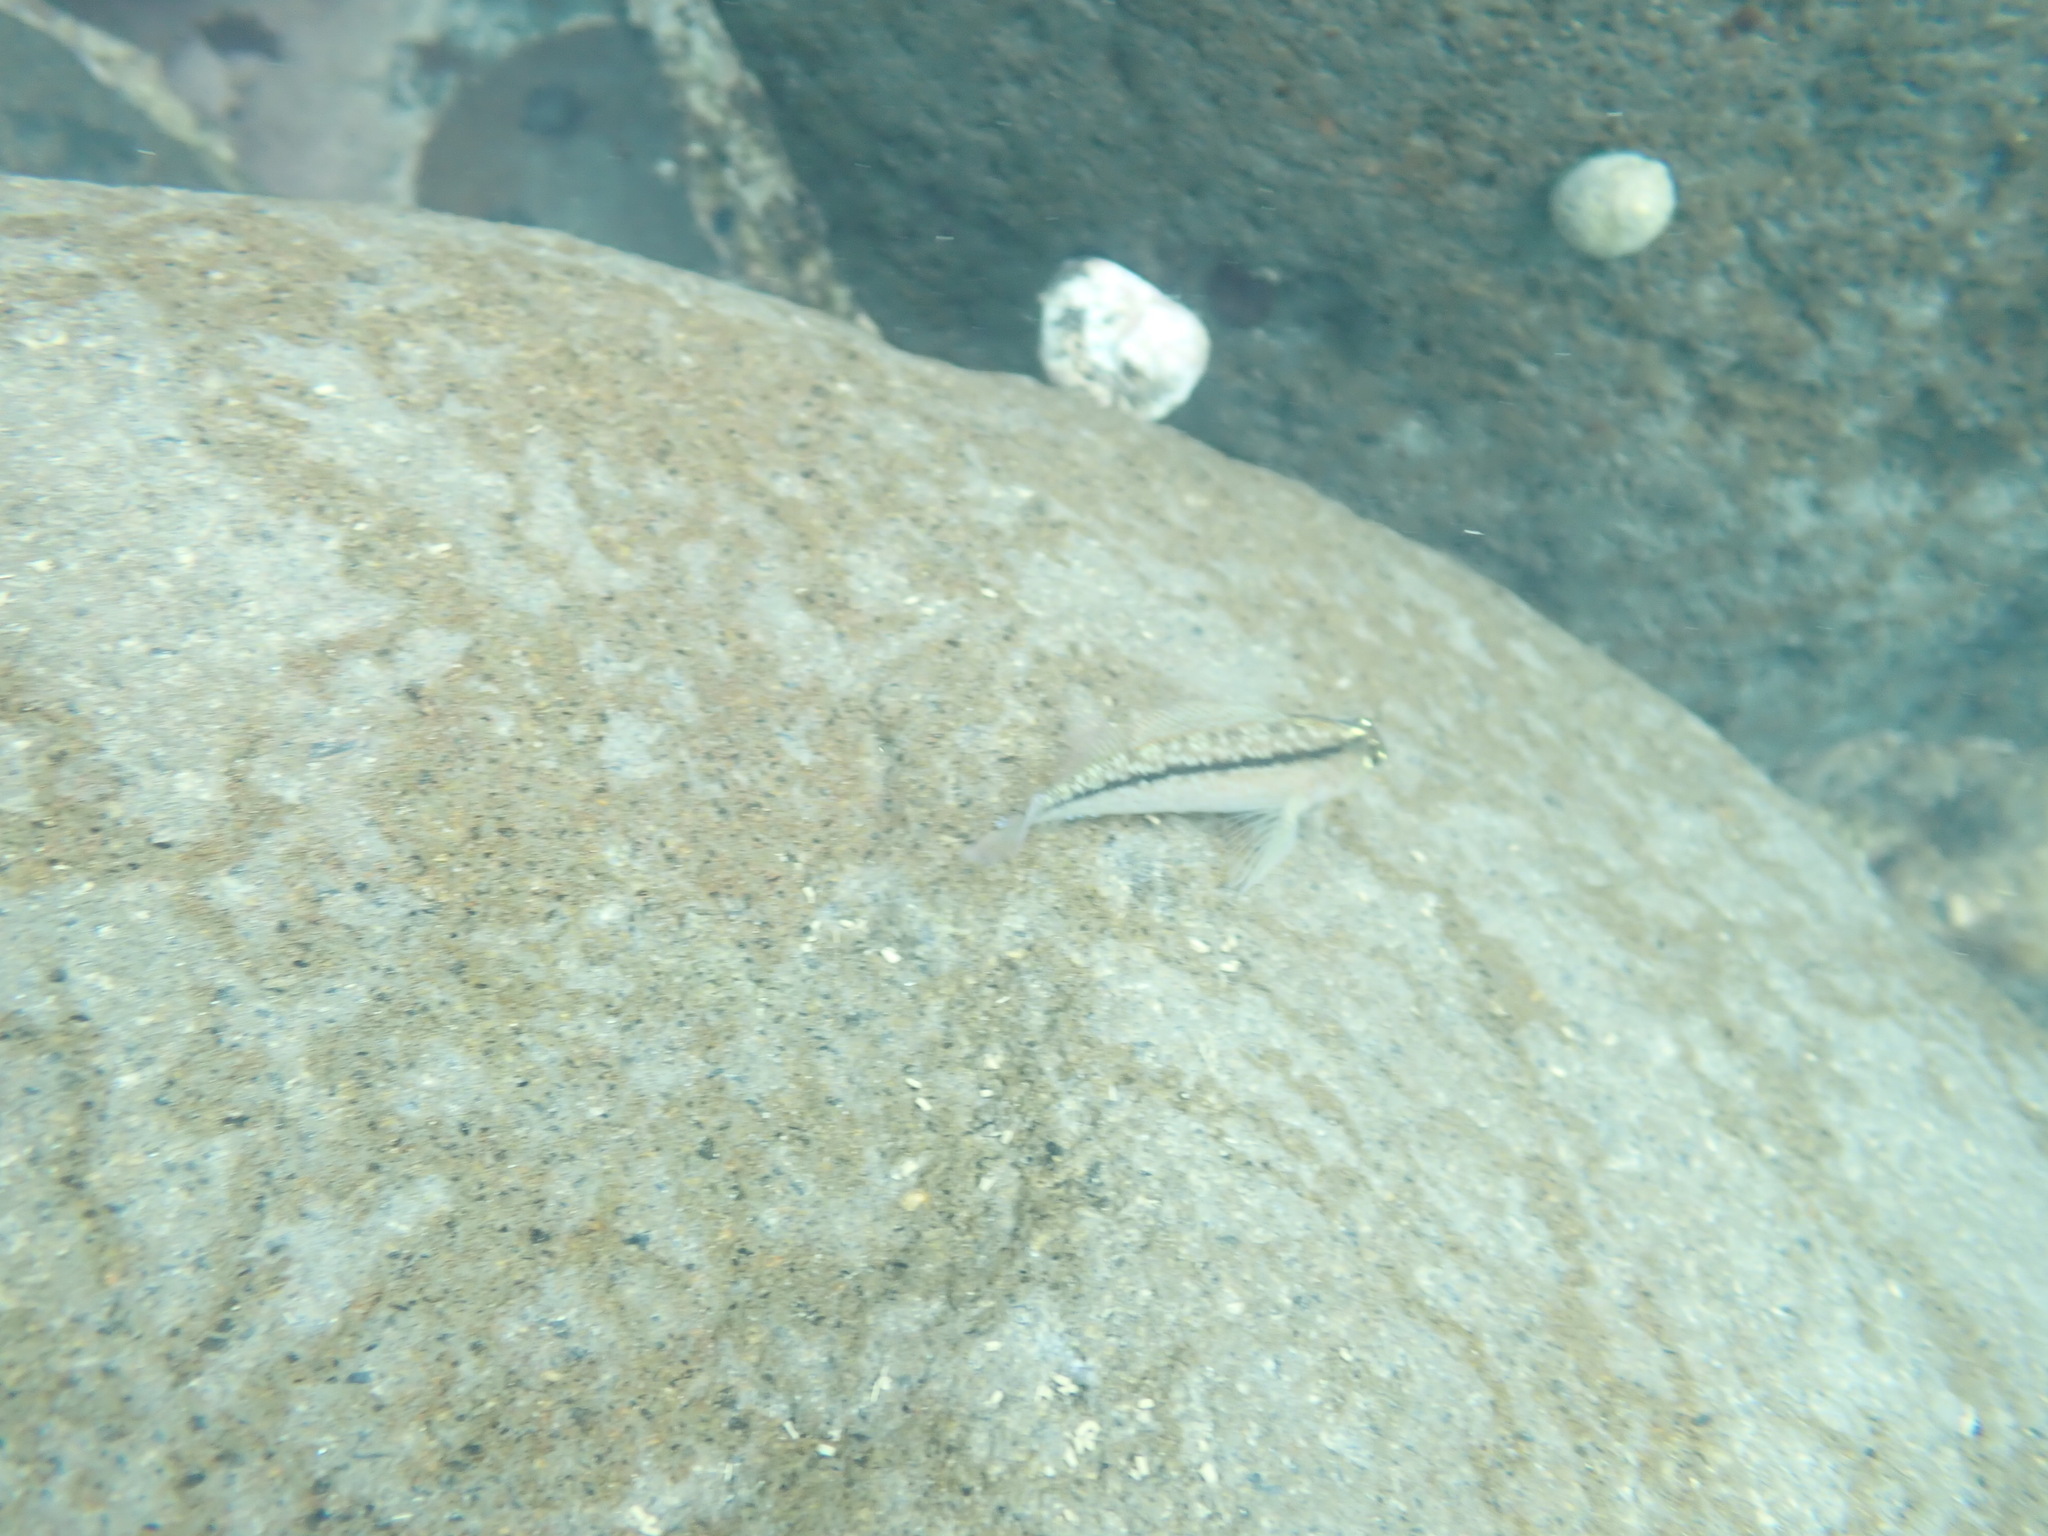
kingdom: Animalia
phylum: Chordata
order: Perciformes
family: Tripterygiidae
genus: Forsterygion
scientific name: Forsterygion lapillum
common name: Common triplefin
